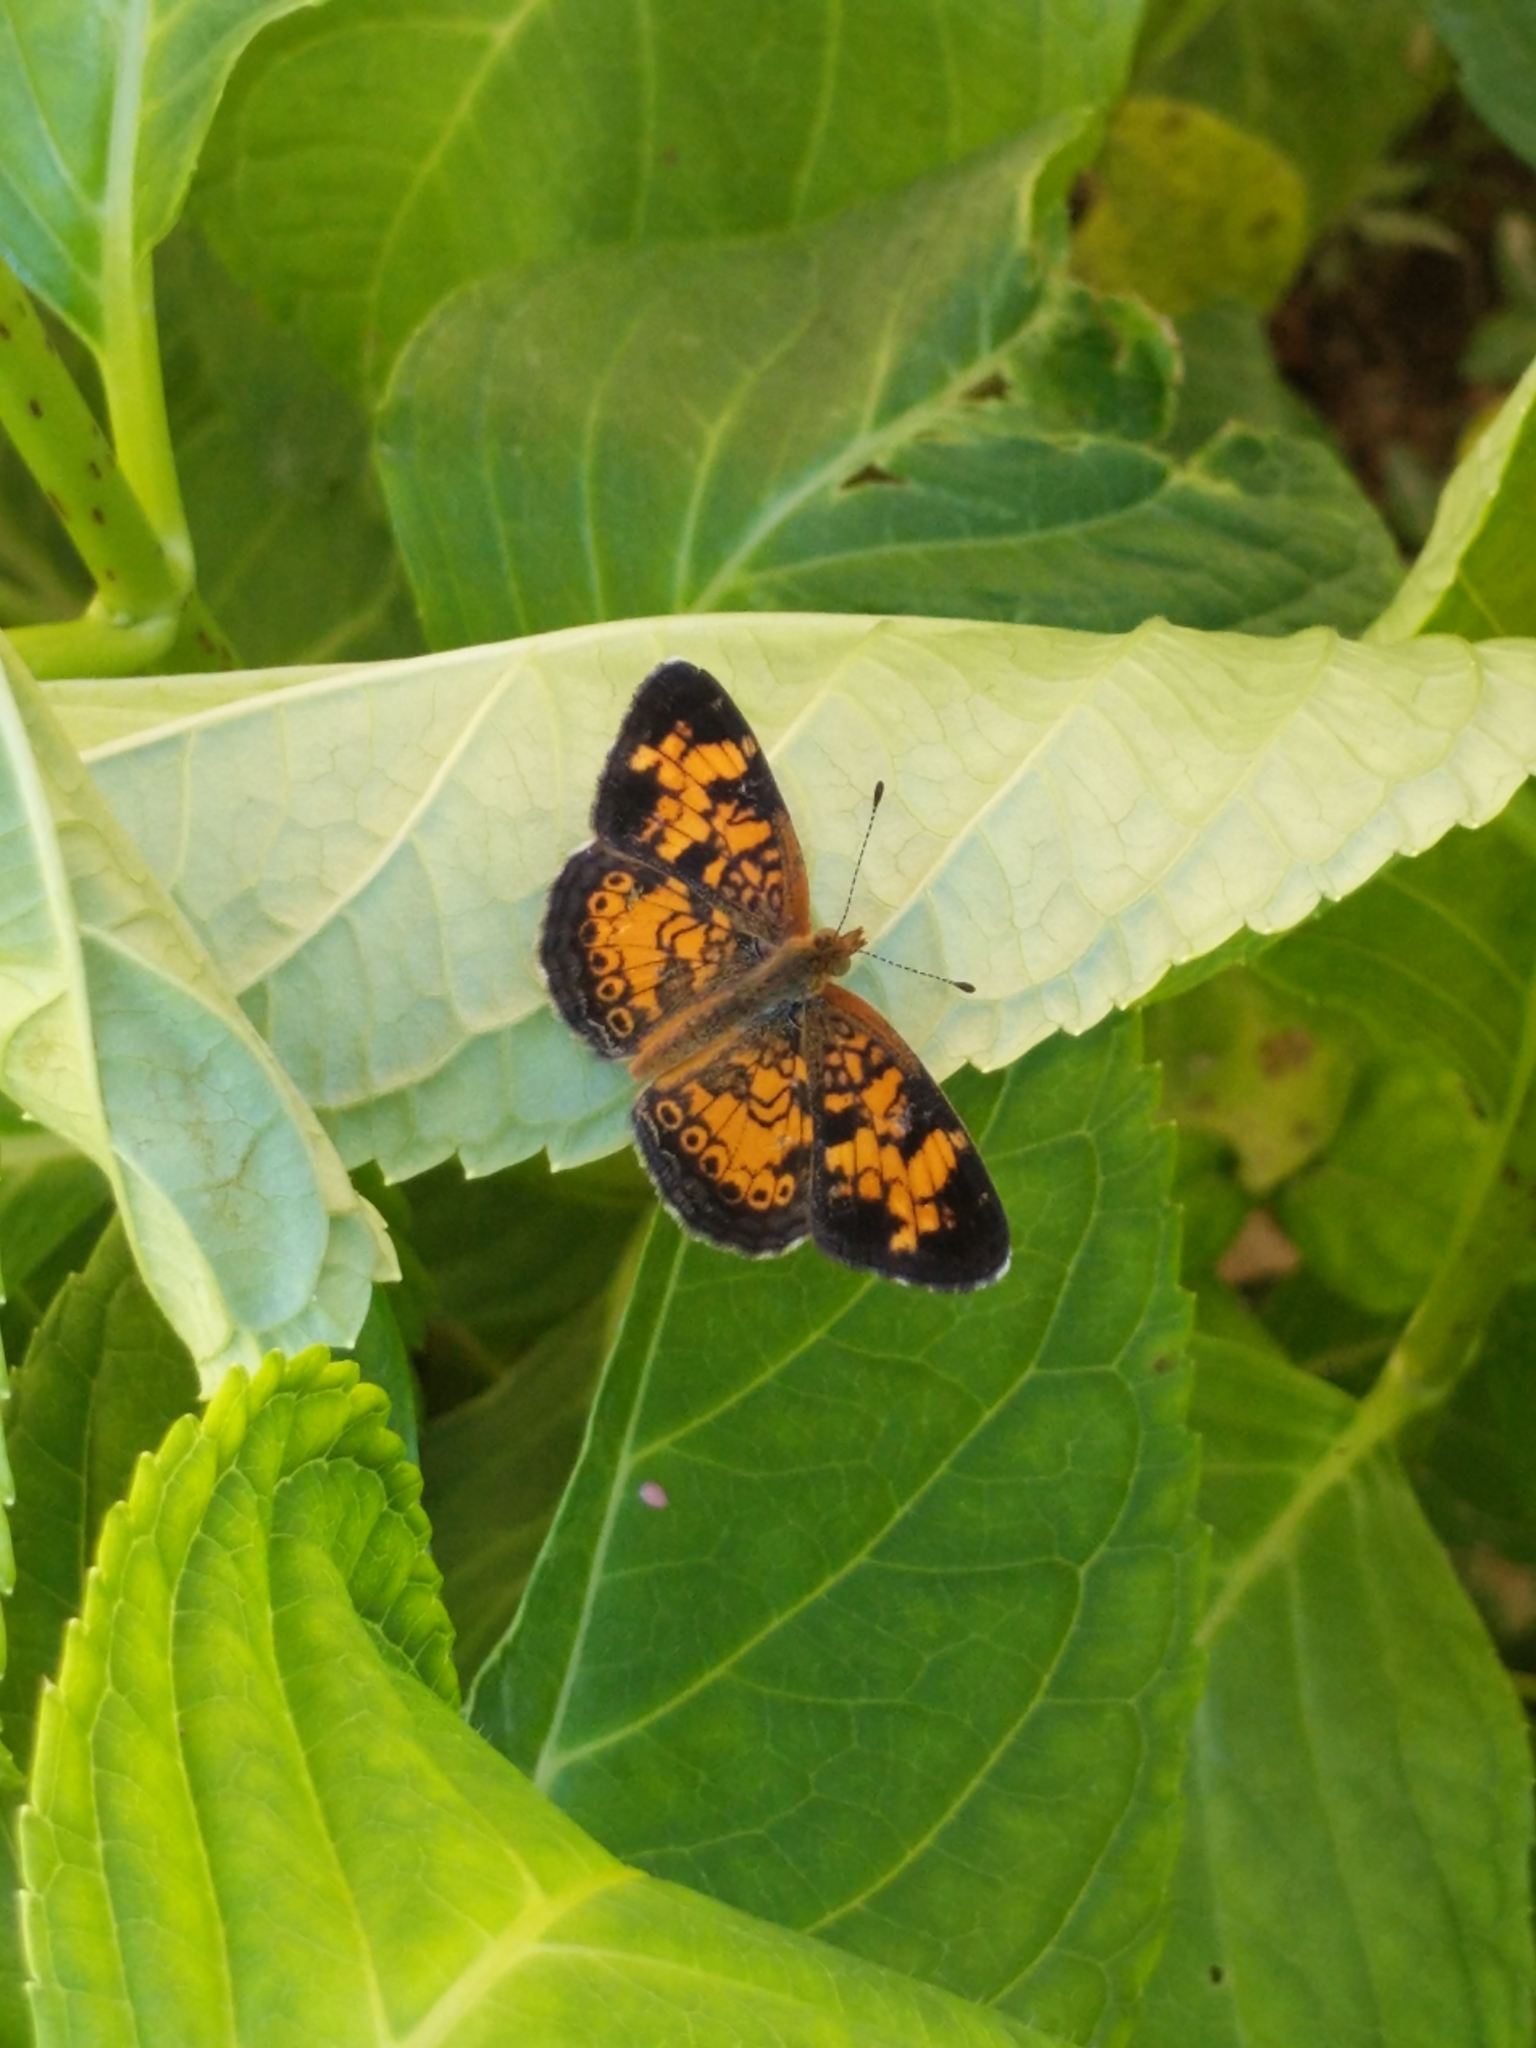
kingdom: Animalia
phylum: Arthropoda
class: Insecta
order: Lepidoptera
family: Nymphalidae
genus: Phyciodes
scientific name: Phyciodes tharos
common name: Pearl crescent
